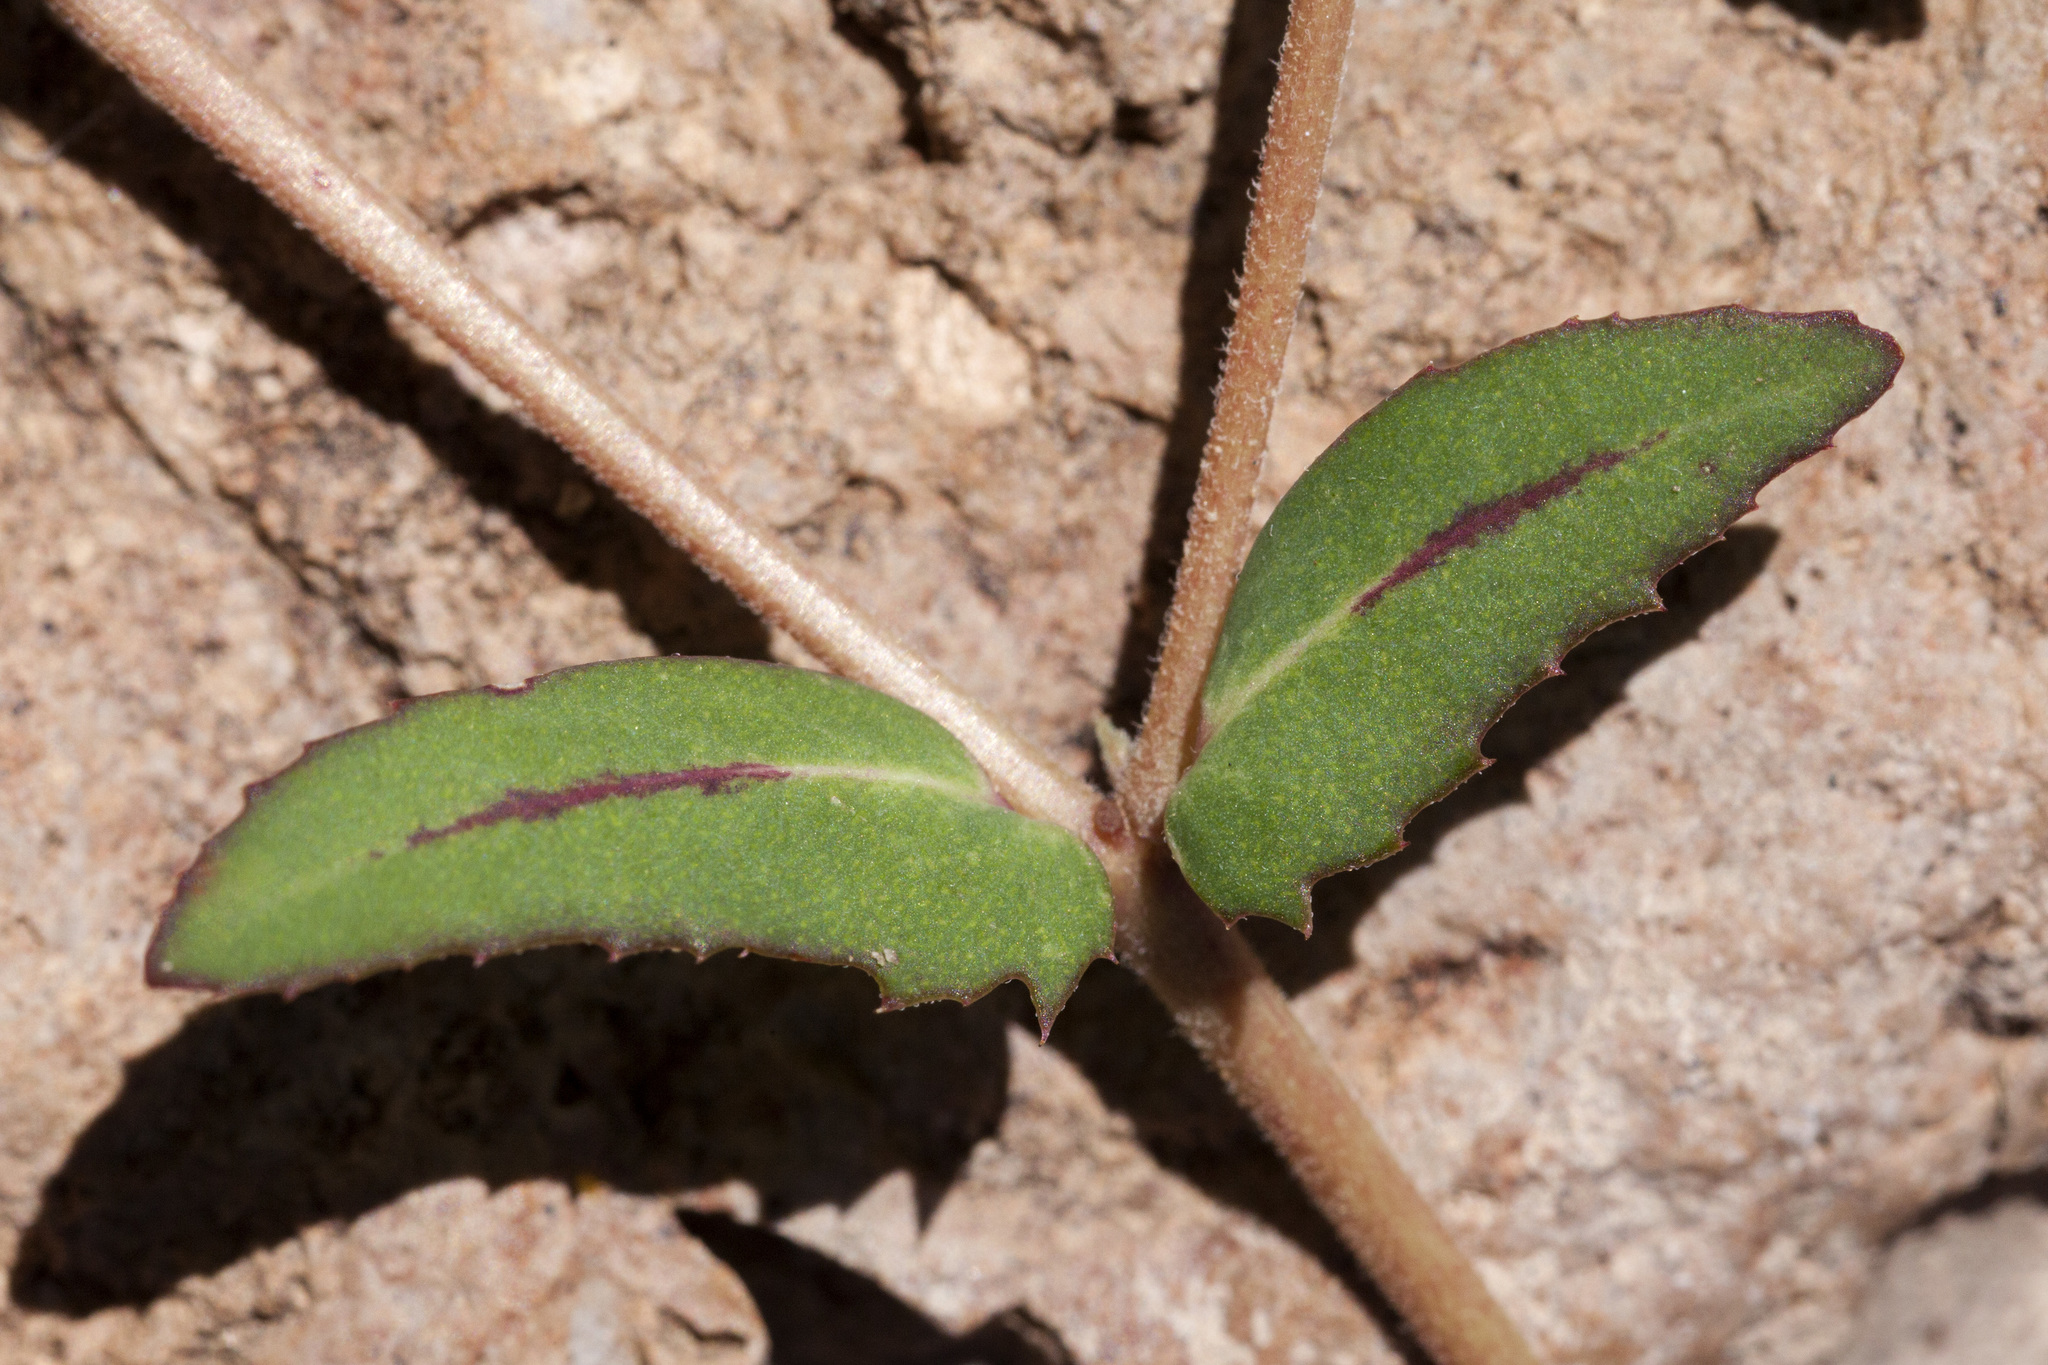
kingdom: Plantae
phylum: Tracheophyta
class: Magnoliopsida
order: Malpighiales
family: Euphorbiaceae
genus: Euphorbia
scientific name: Euphorbia rayturneri
